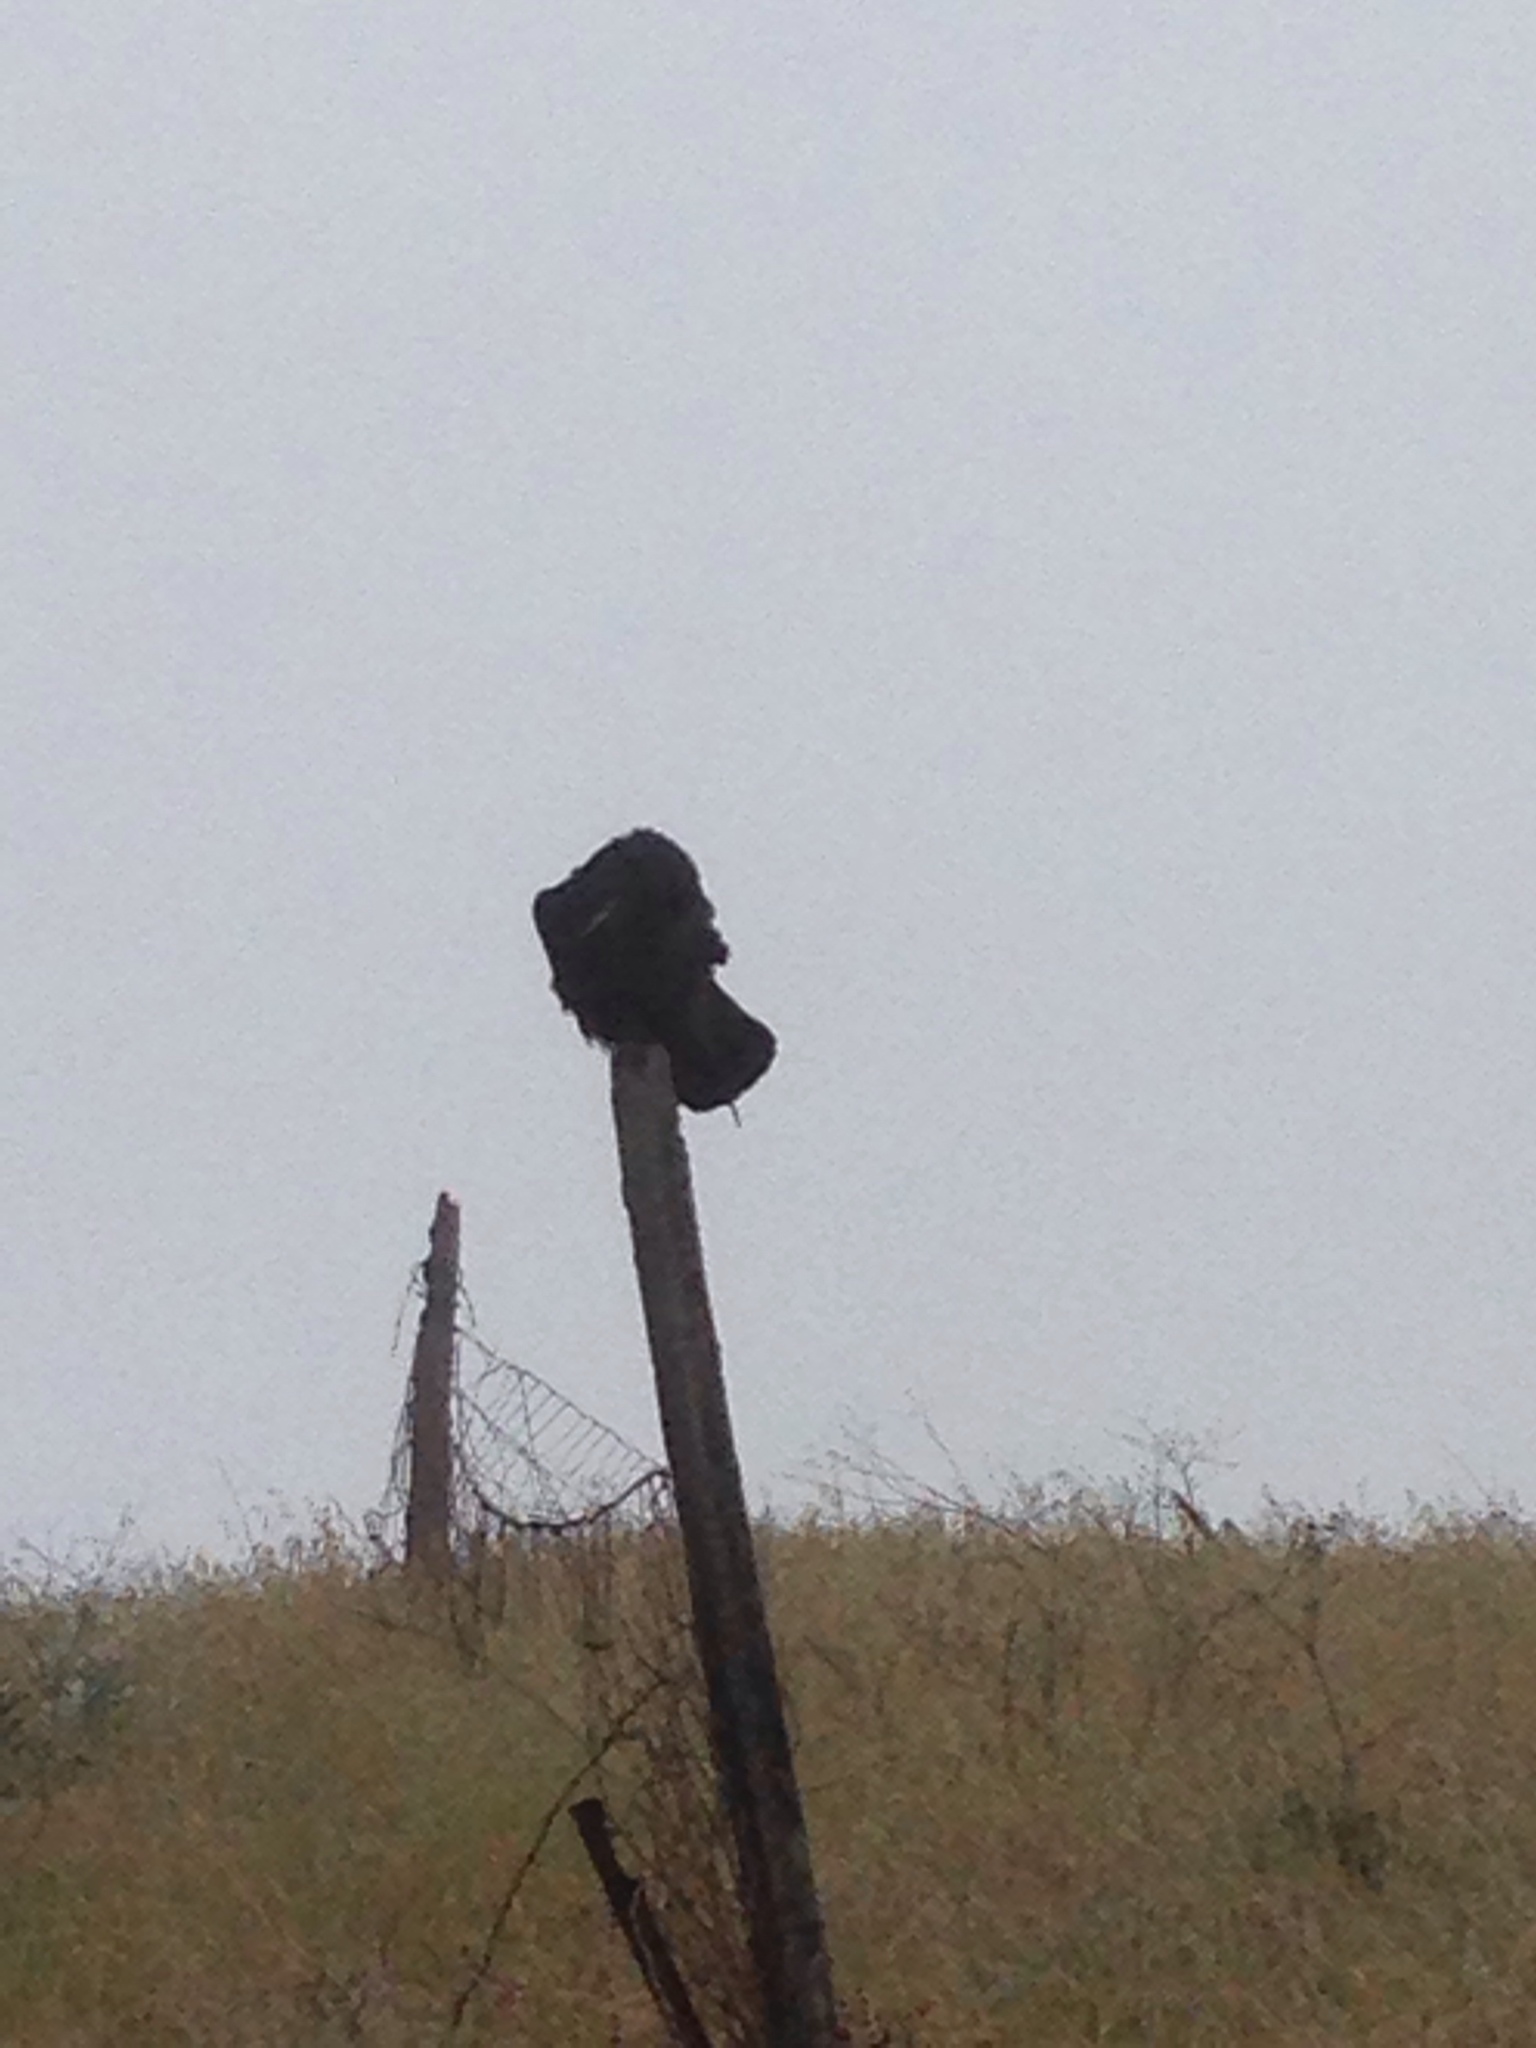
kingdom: Animalia
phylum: Chordata
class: Aves
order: Passeriformes
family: Corvidae
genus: Corvus
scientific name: Corvus corax
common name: Common raven
